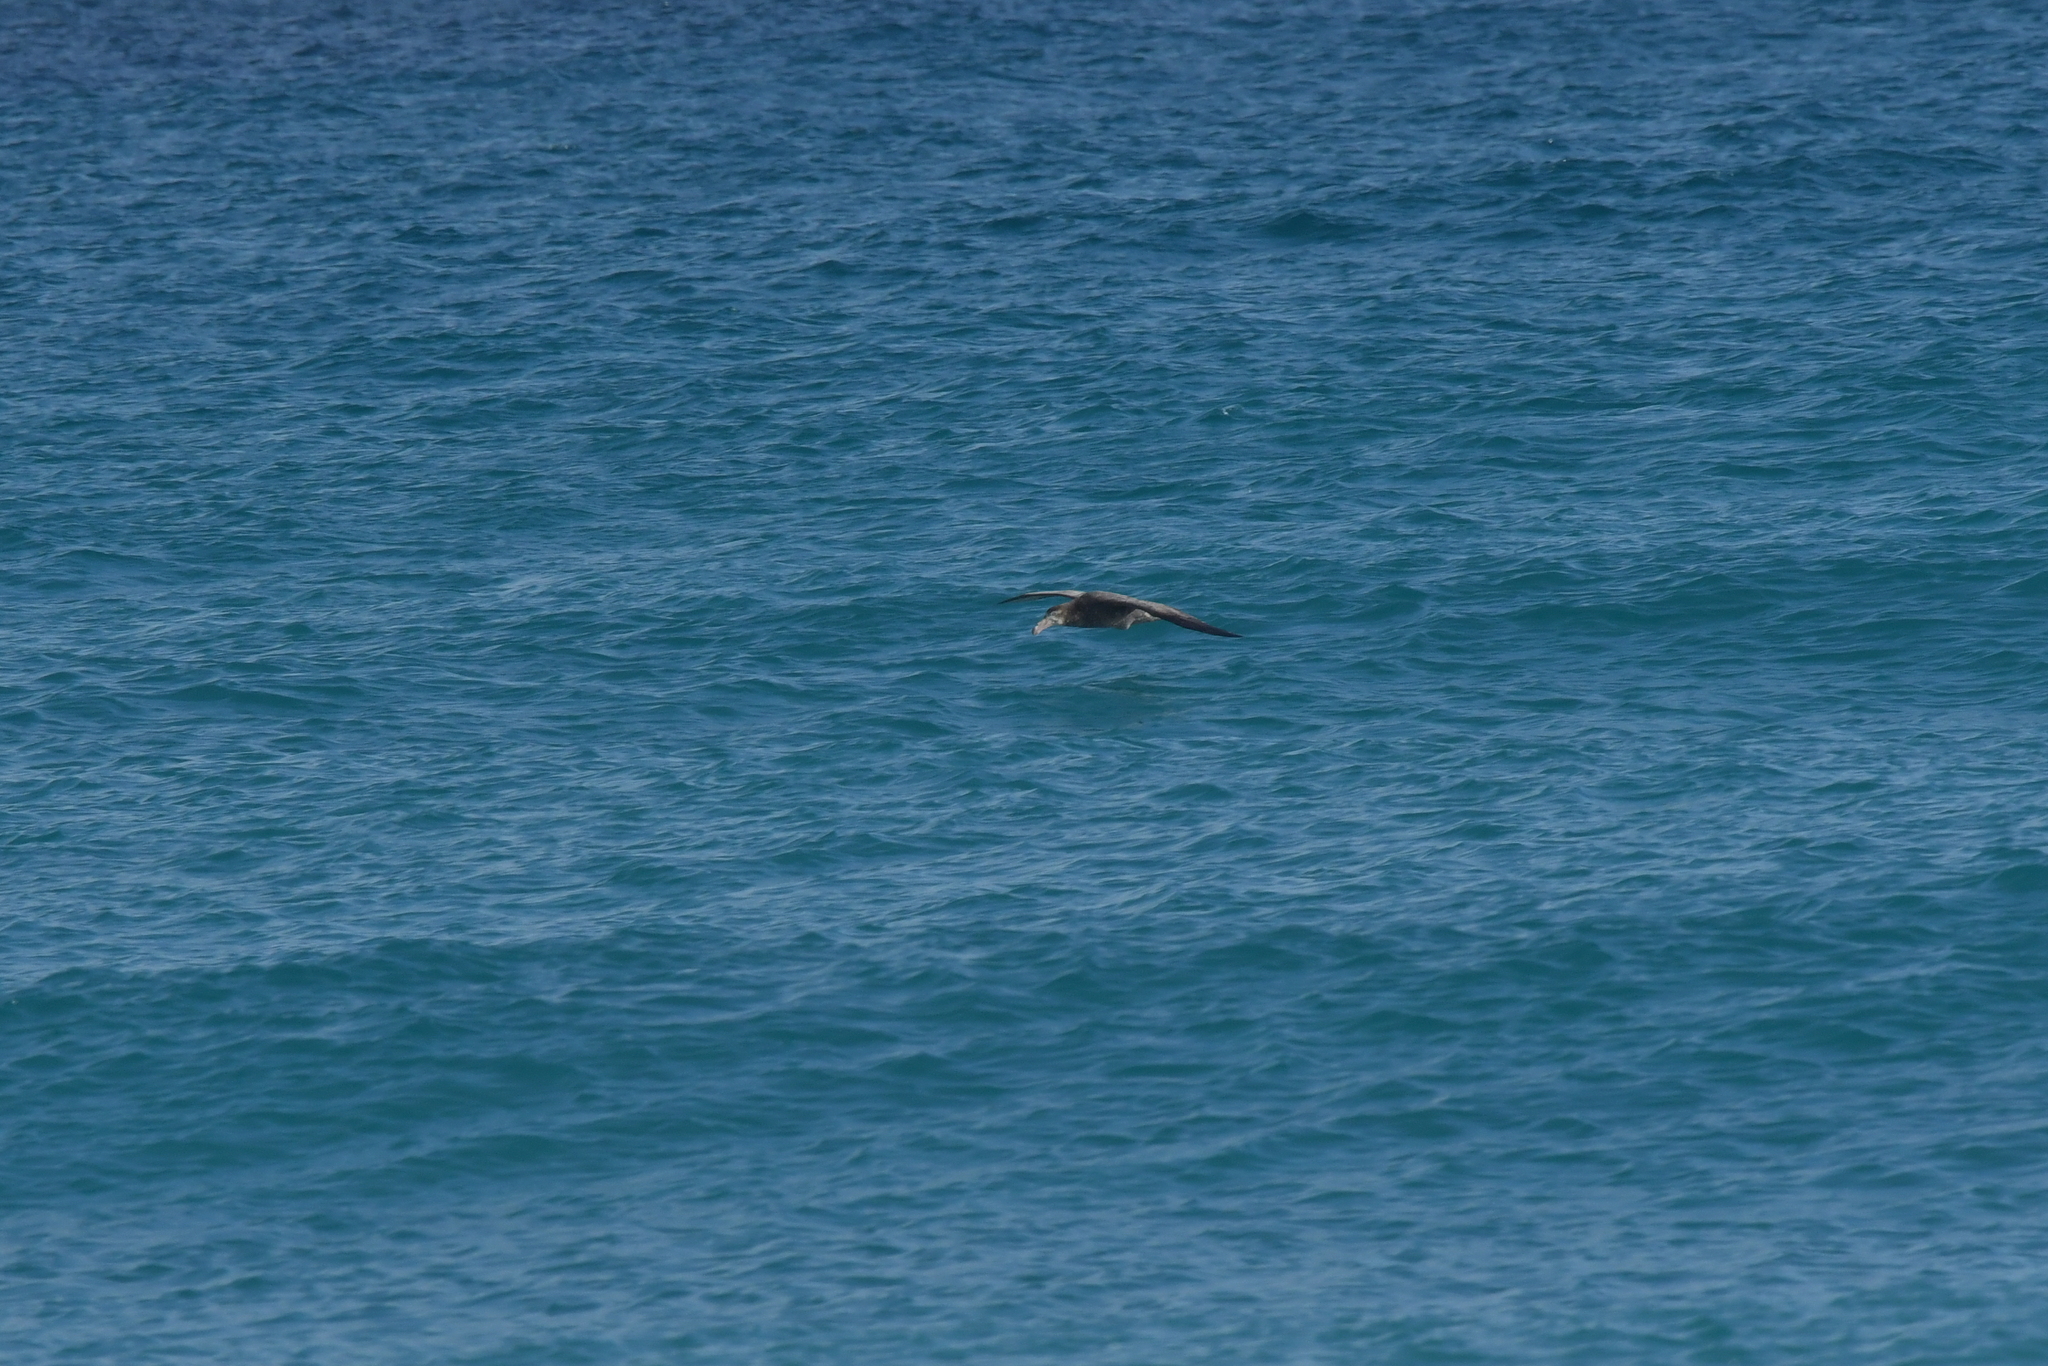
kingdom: Animalia
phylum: Chordata
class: Aves
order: Procellariiformes
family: Procellariidae
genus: Macronectes
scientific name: Macronectes halli
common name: Northern giant petrel
